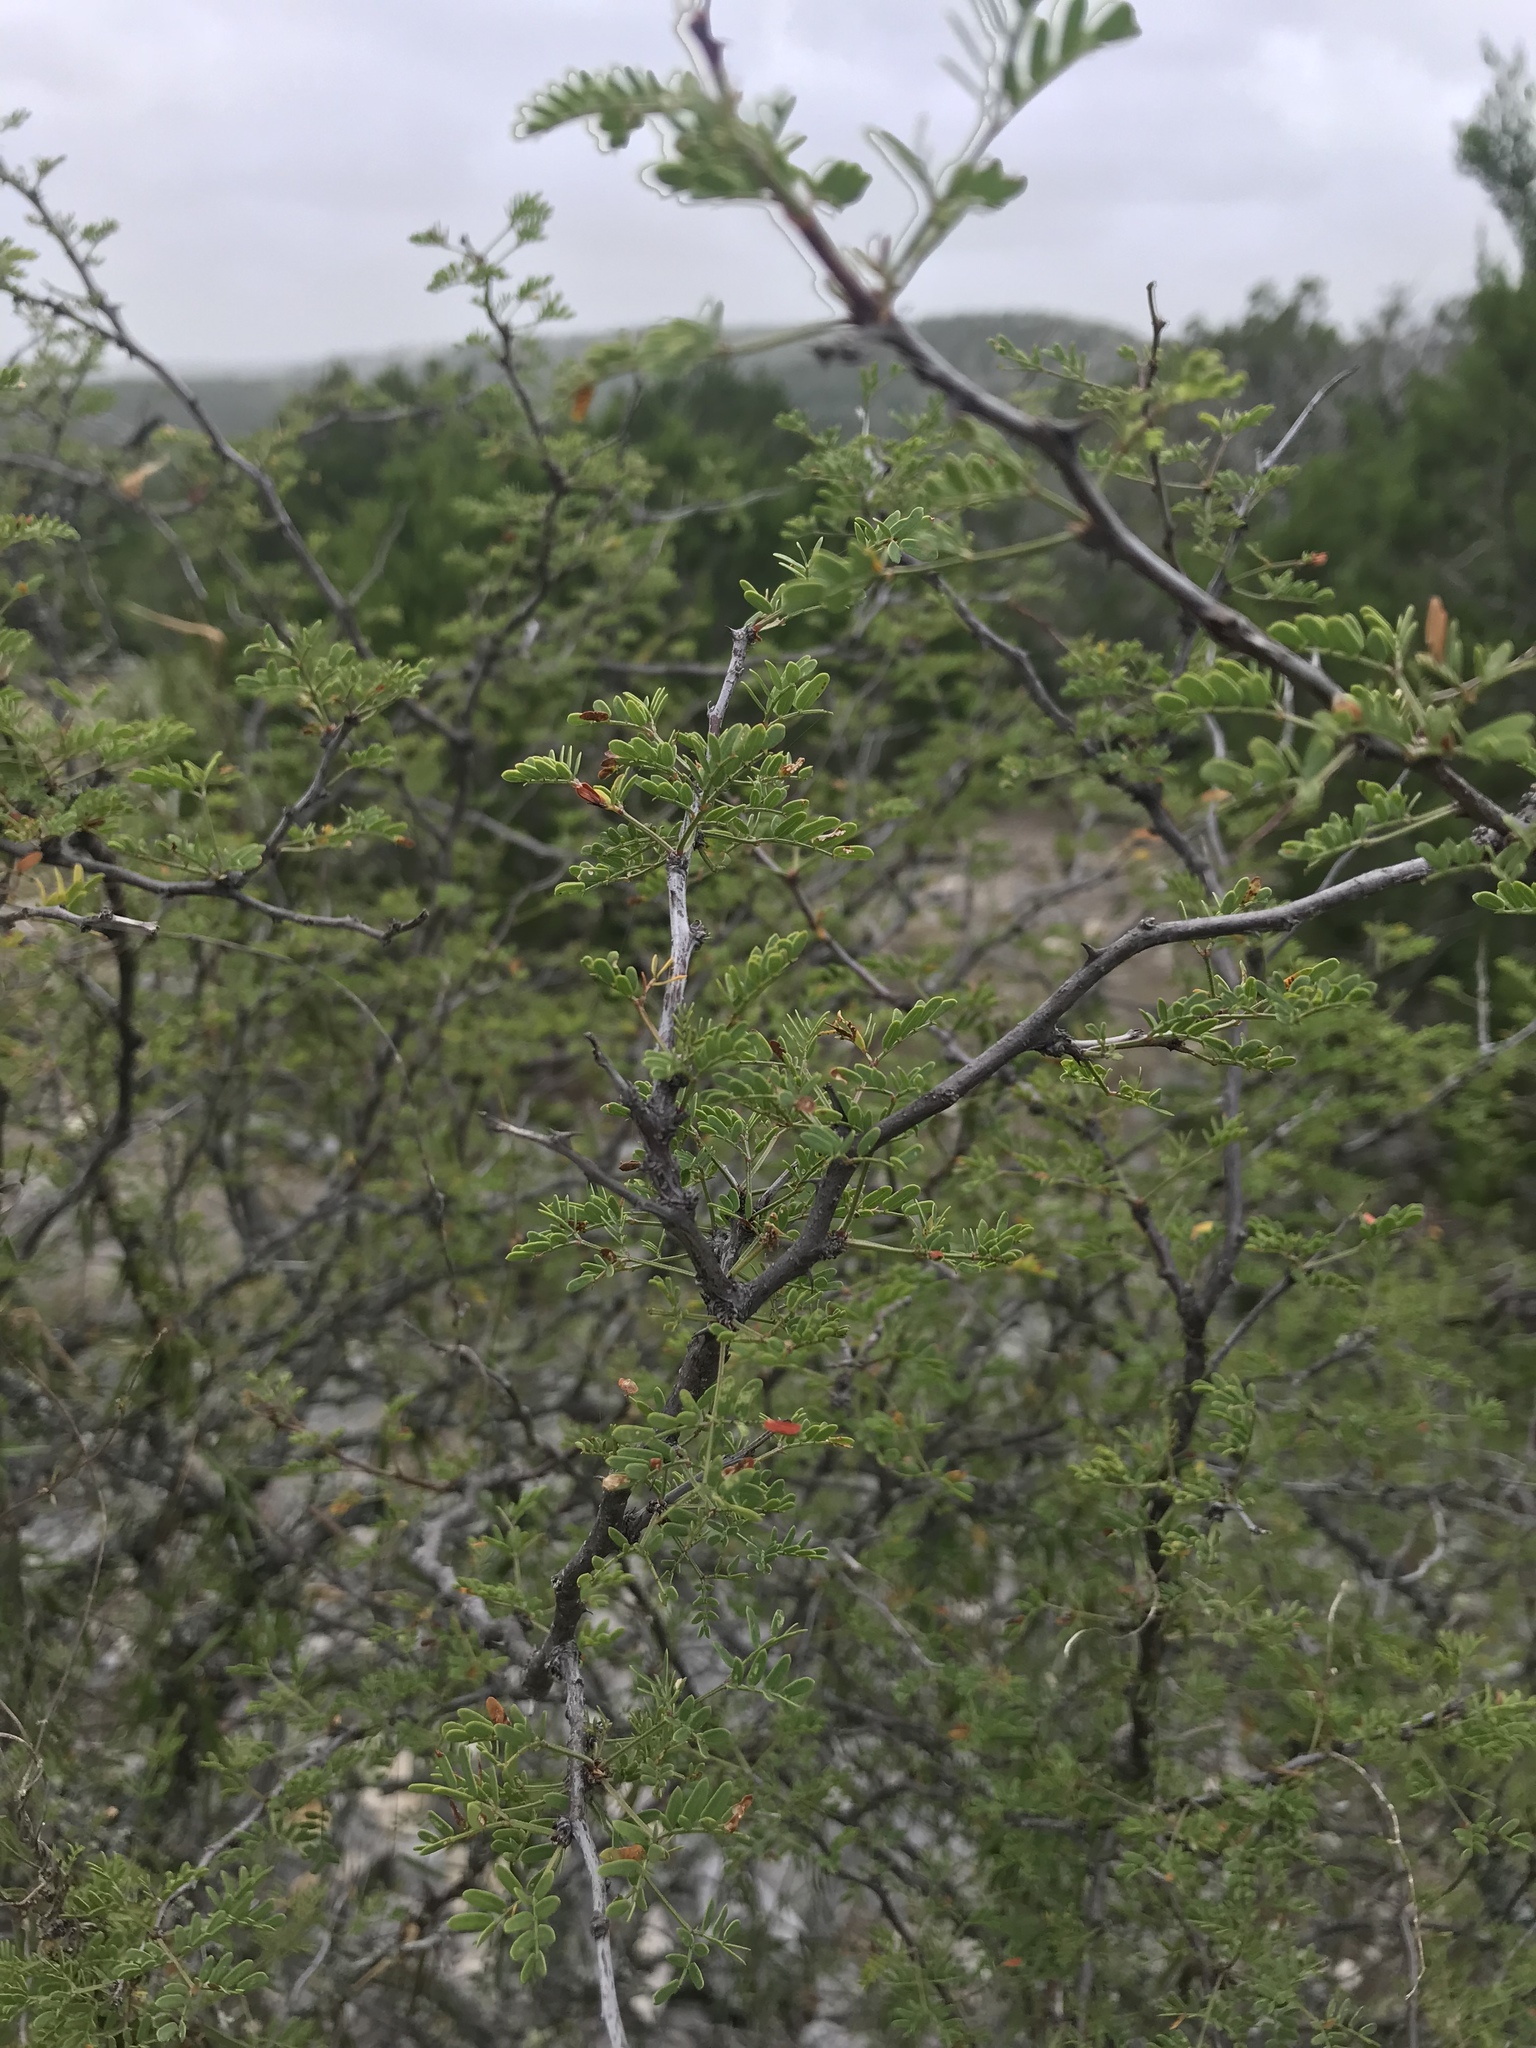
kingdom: Plantae
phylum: Tracheophyta
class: Magnoliopsida
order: Fabales
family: Fabaceae
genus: Mimosa
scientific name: Mimosa texana
